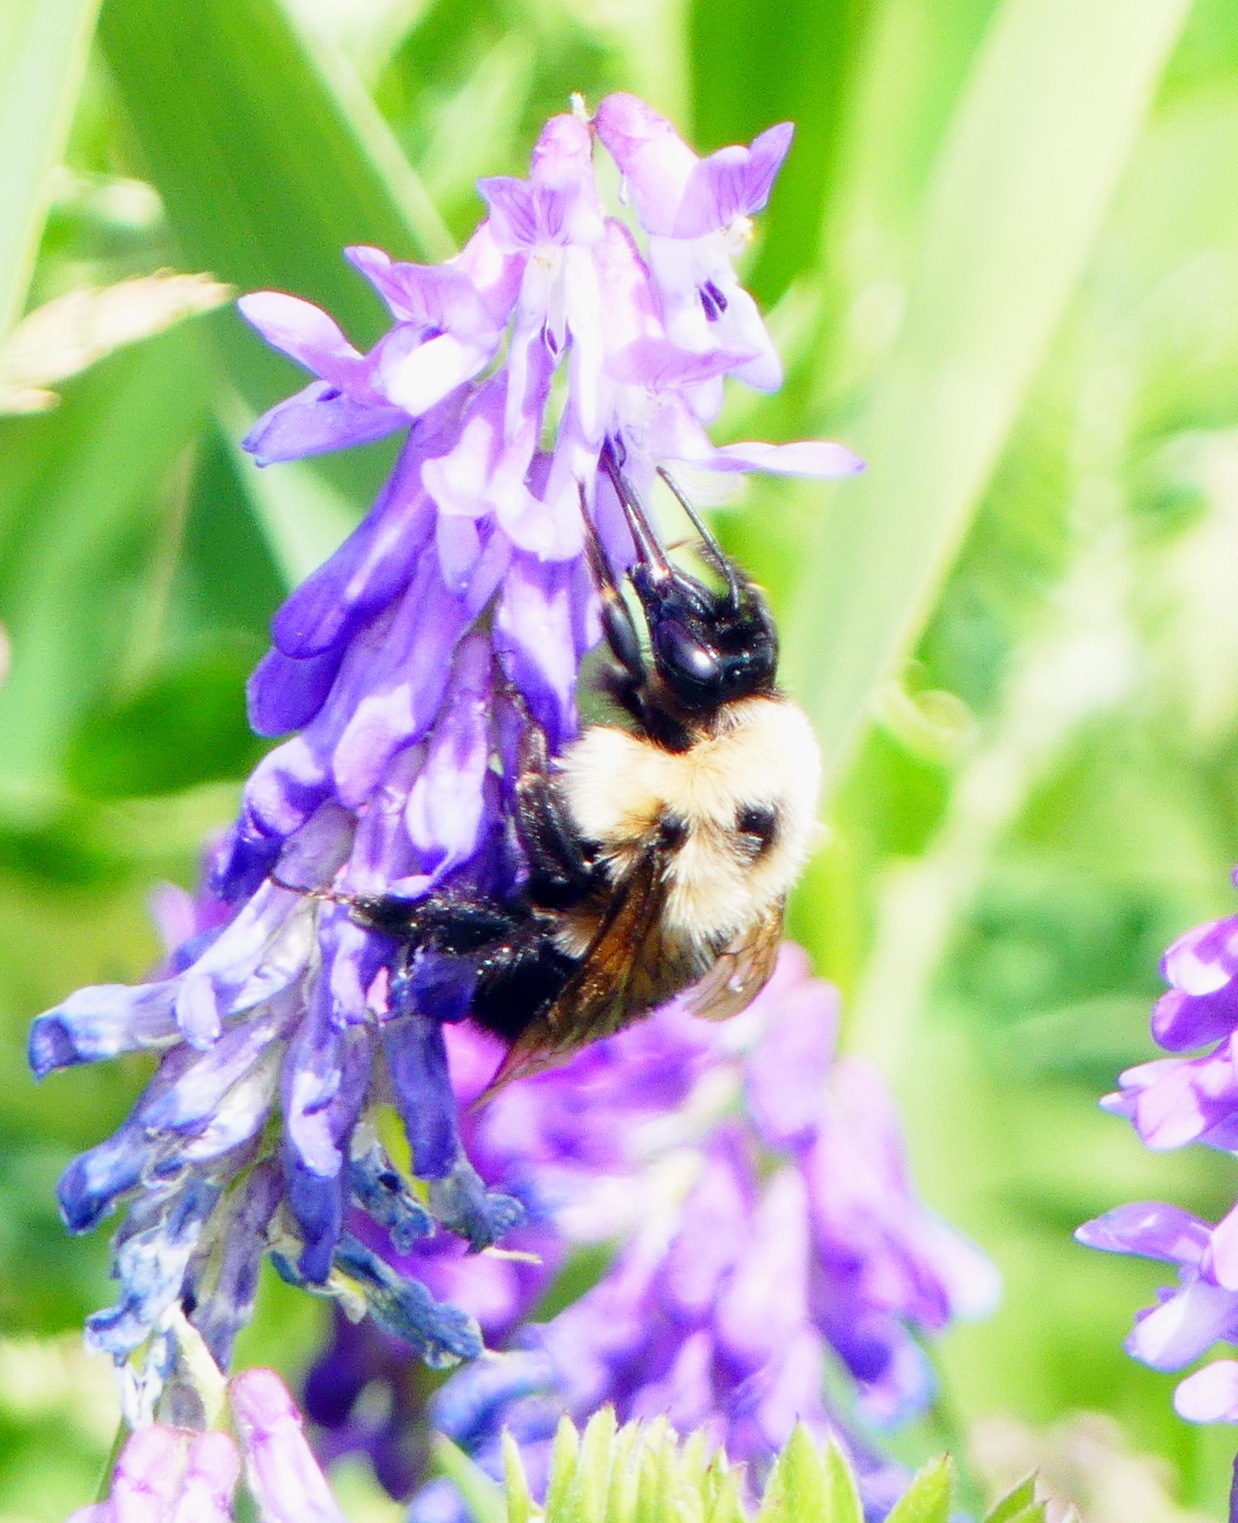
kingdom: Animalia
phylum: Arthropoda
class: Insecta
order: Hymenoptera
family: Apidae
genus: Bombus
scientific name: Bombus bimaculatus
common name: Two-spotted bumble bee
